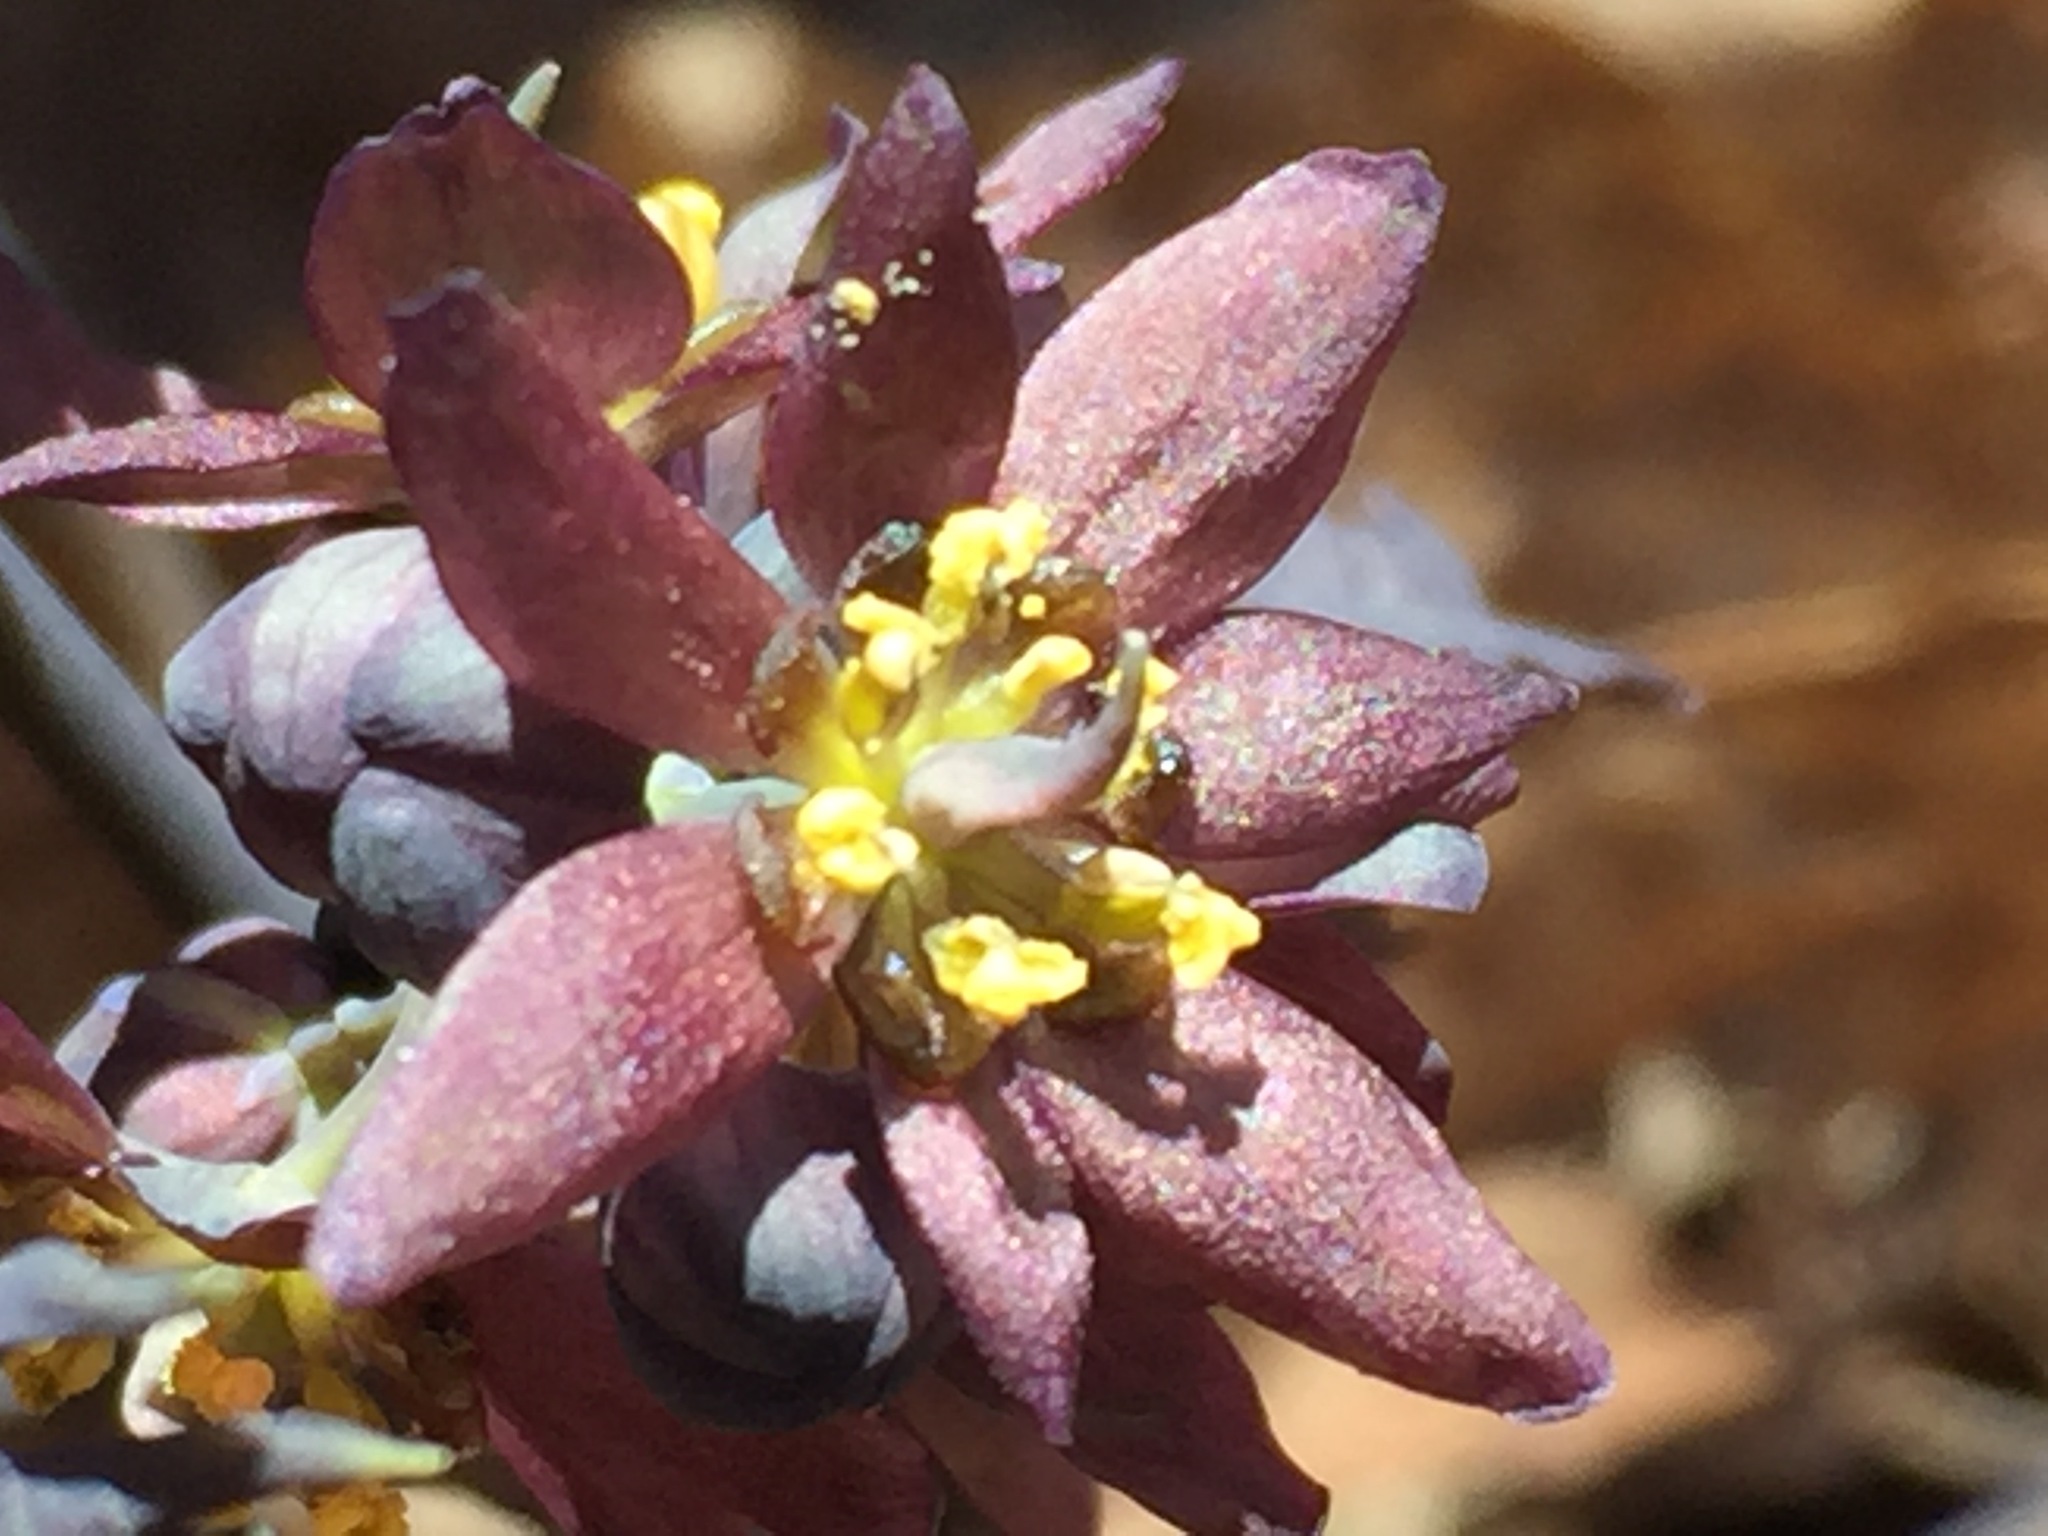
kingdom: Plantae
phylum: Tracheophyta
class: Magnoliopsida
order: Ranunculales
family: Berberidaceae
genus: Caulophyllum
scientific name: Caulophyllum giganteum
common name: Blue cohosh
